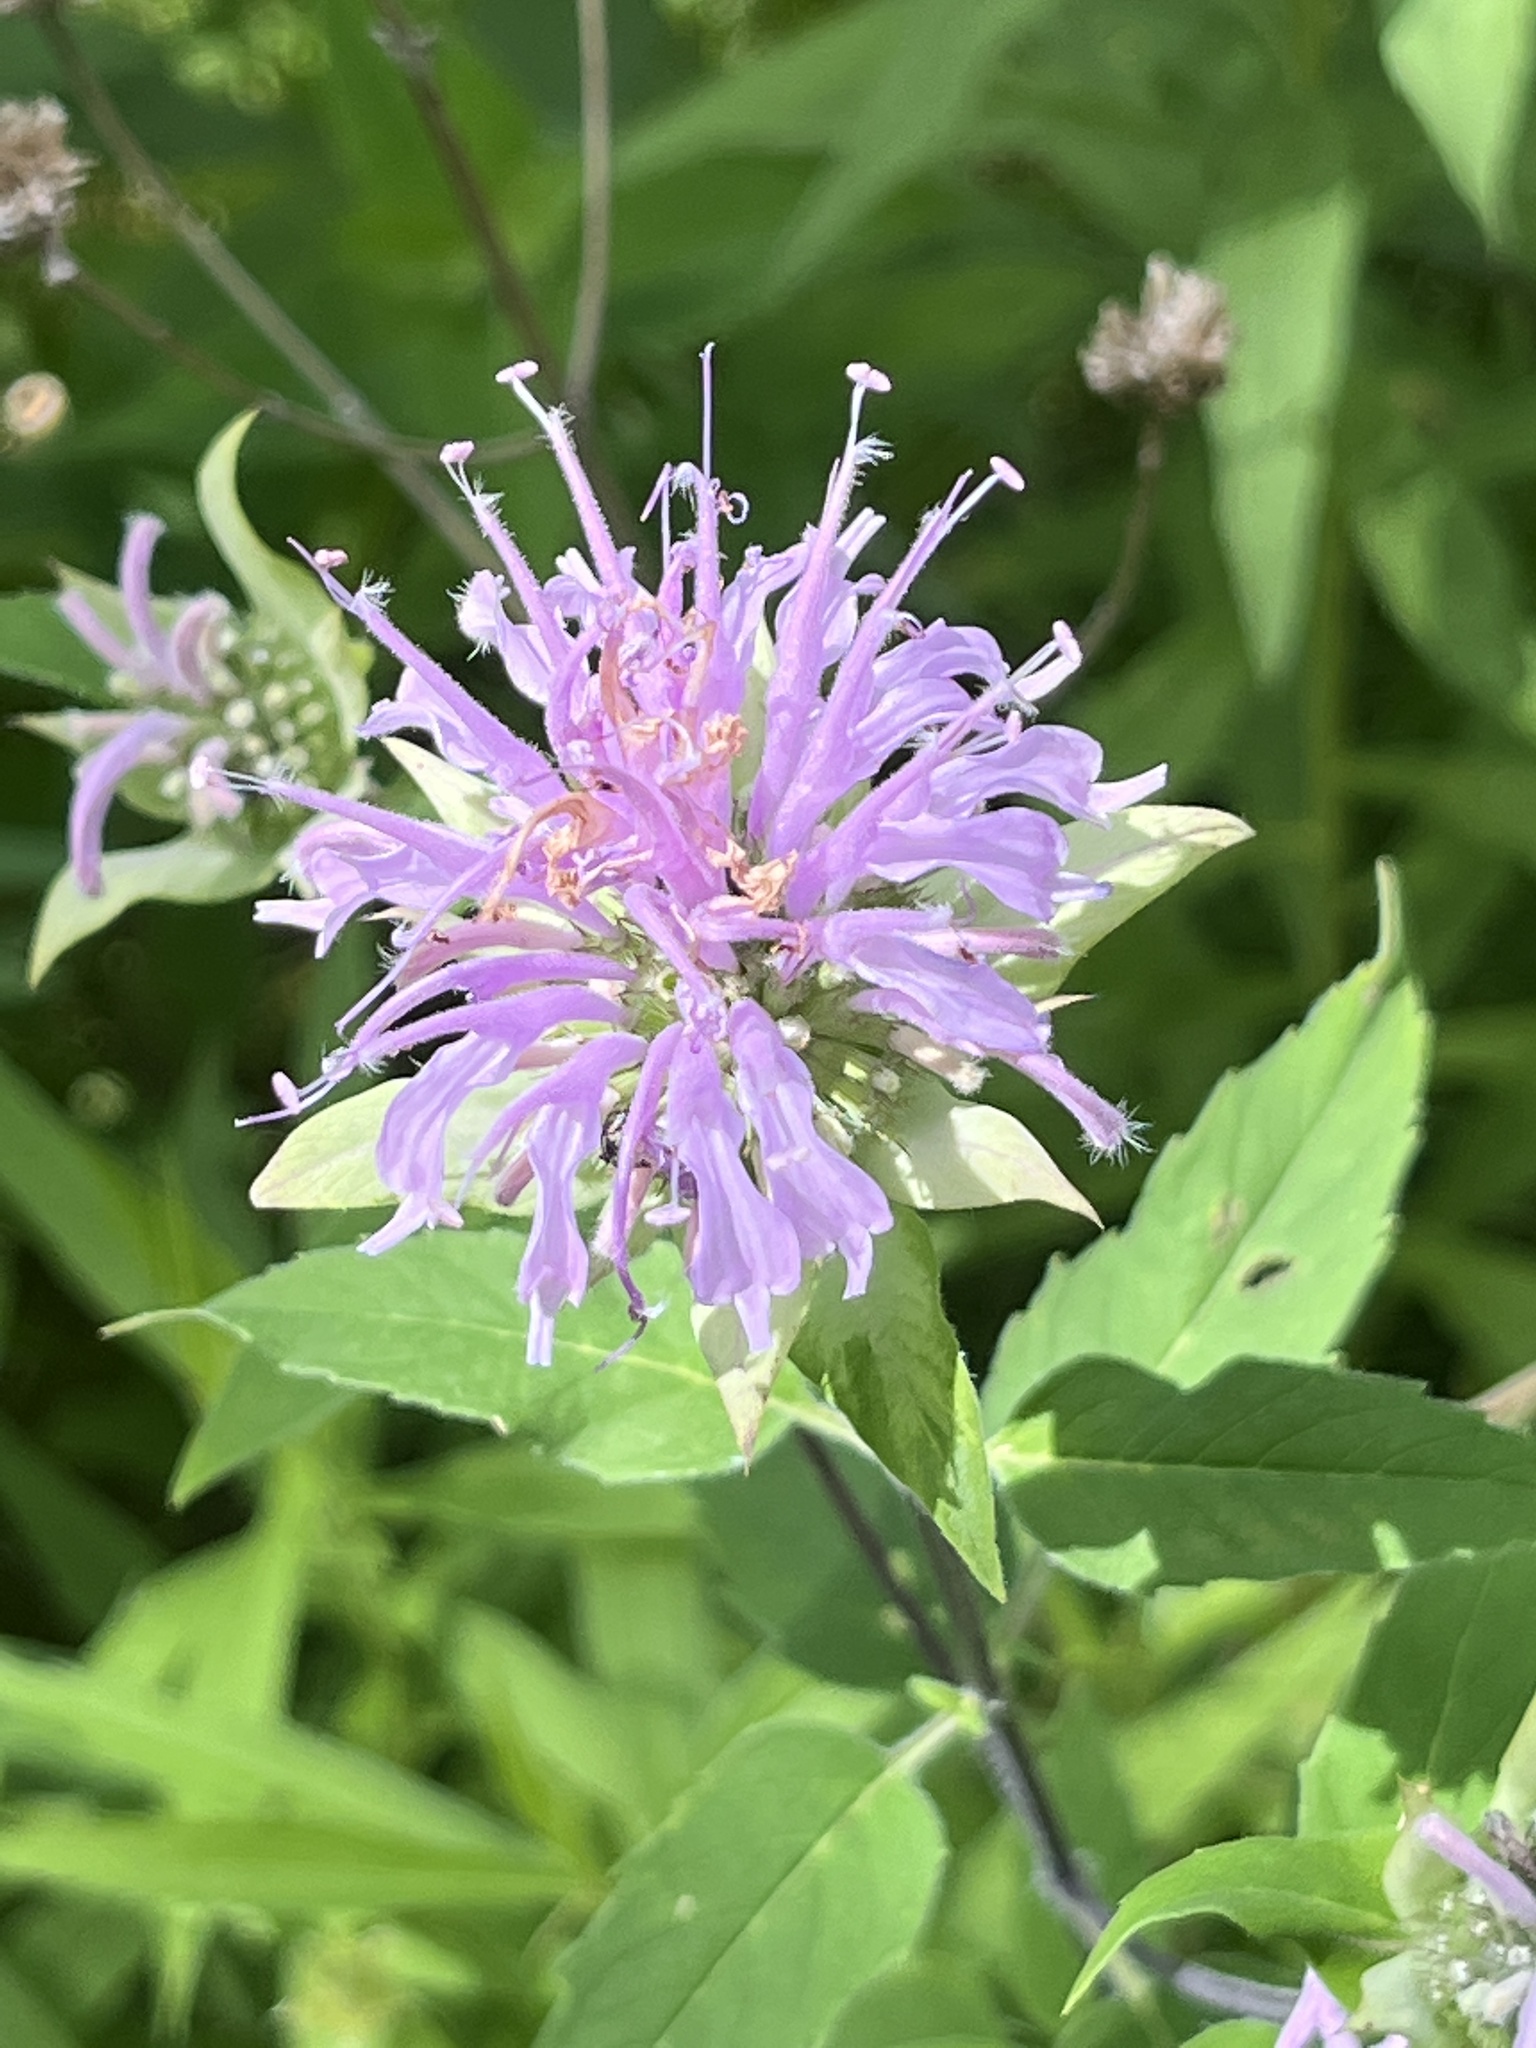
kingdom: Plantae
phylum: Tracheophyta
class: Magnoliopsida
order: Lamiales
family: Lamiaceae
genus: Monarda
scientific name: Monarda fistulosa
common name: Purple beebalm
